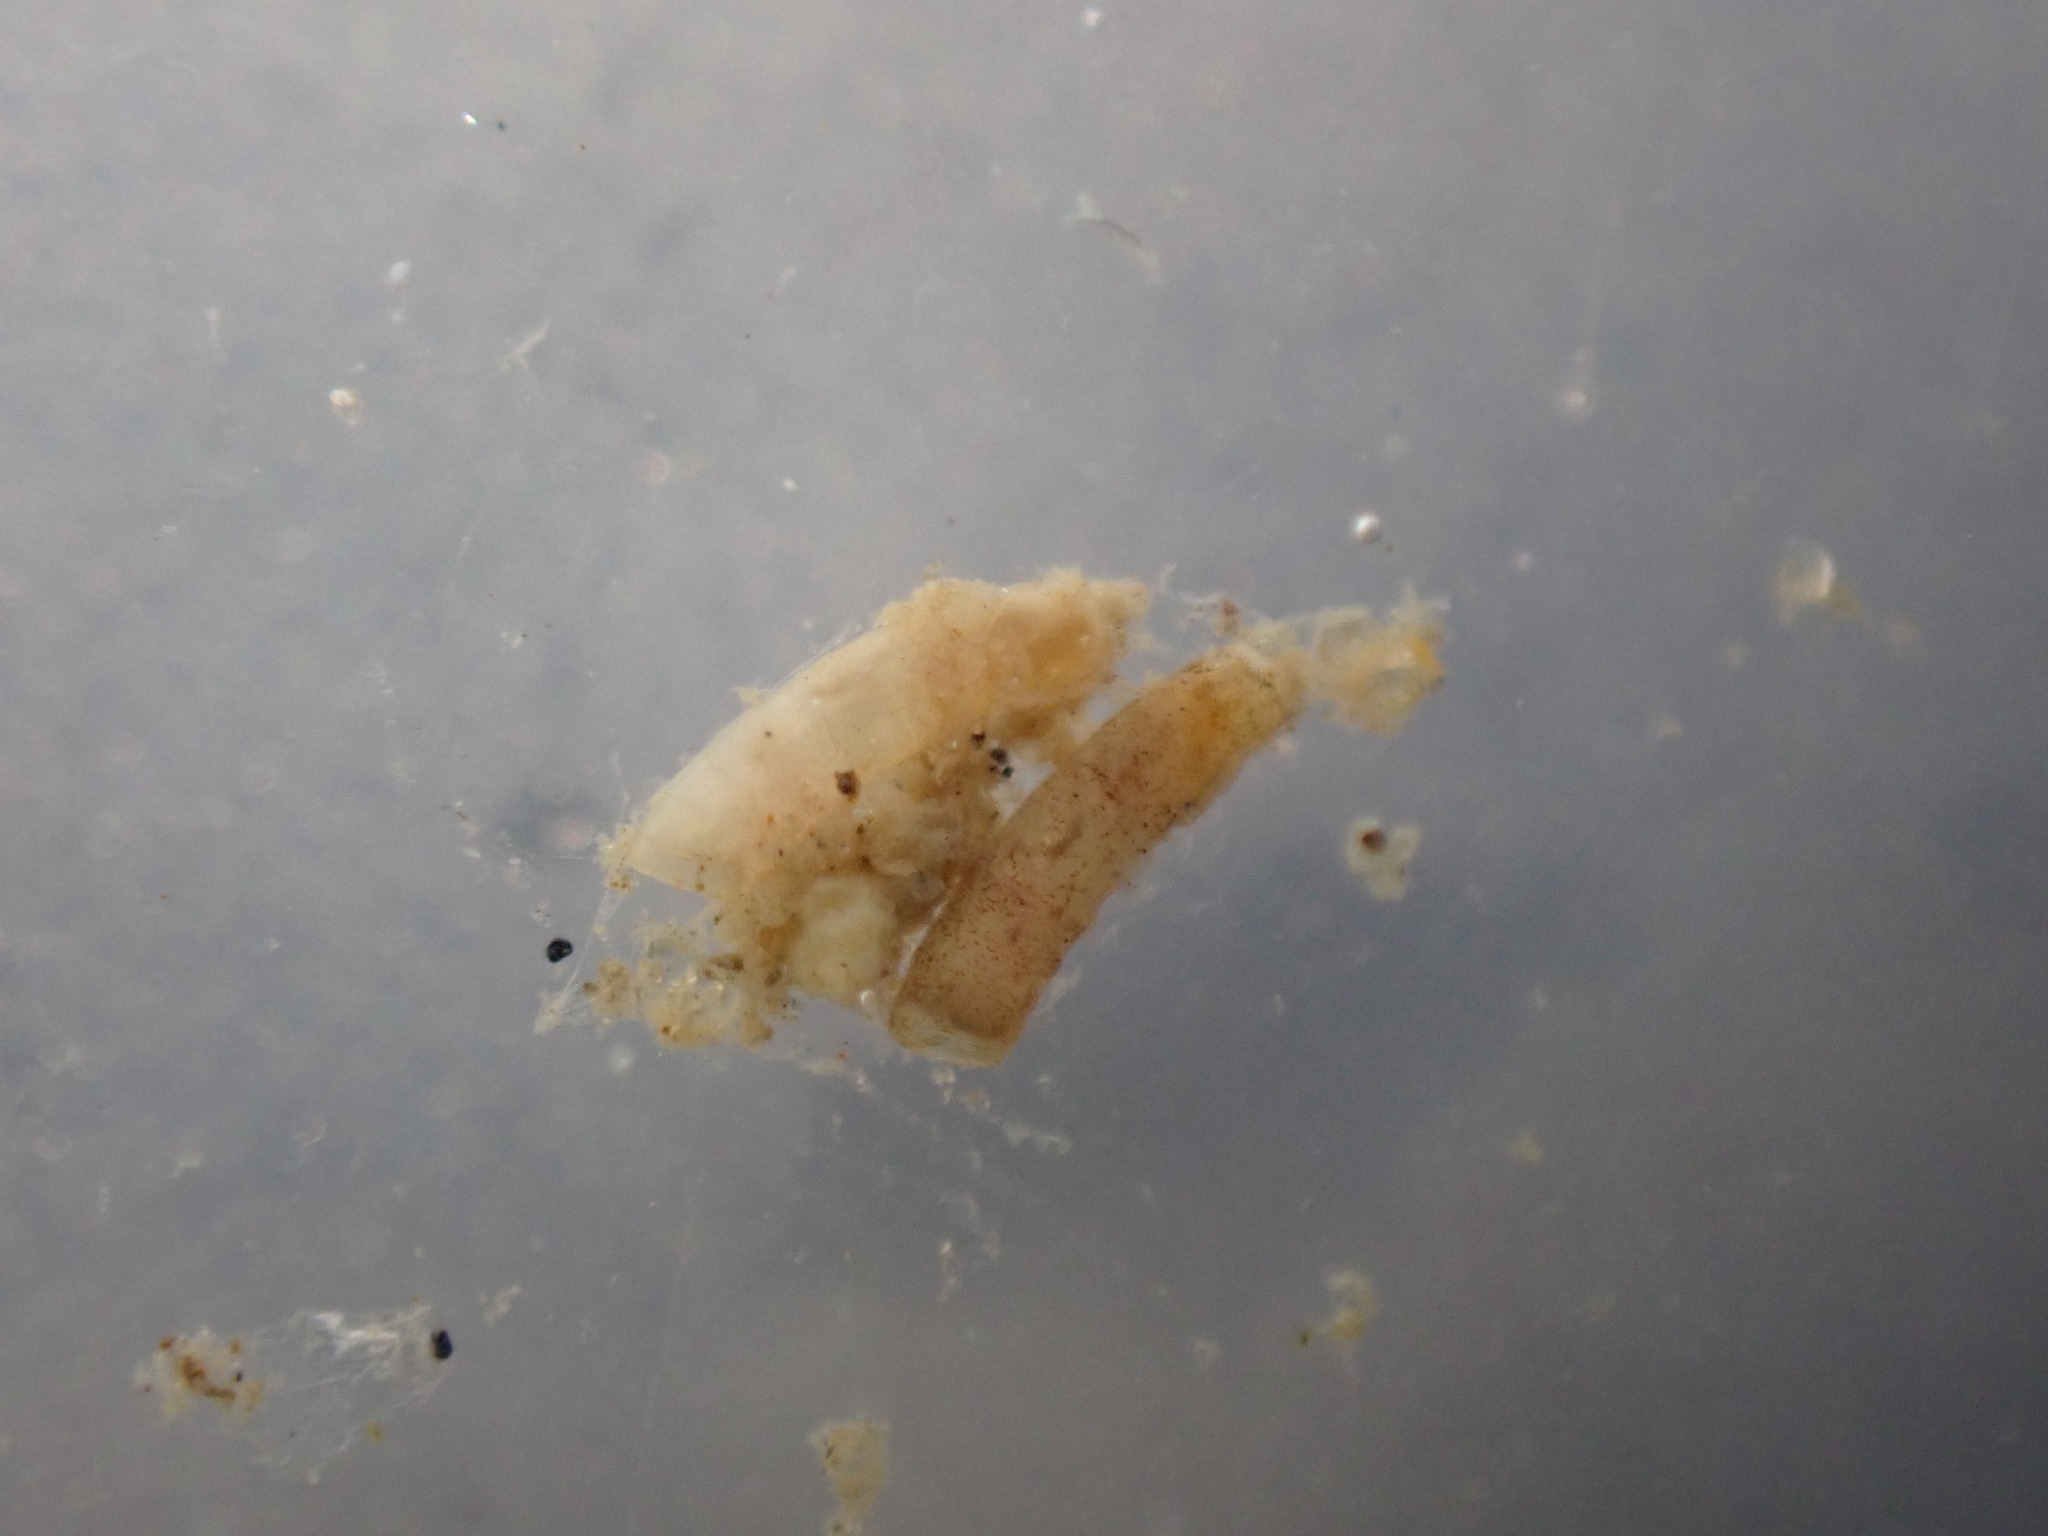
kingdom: Animalia
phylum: Mollusca
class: Gastropoda
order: Littorinimorpha
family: Caecidae
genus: Caecum
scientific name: Caecum
